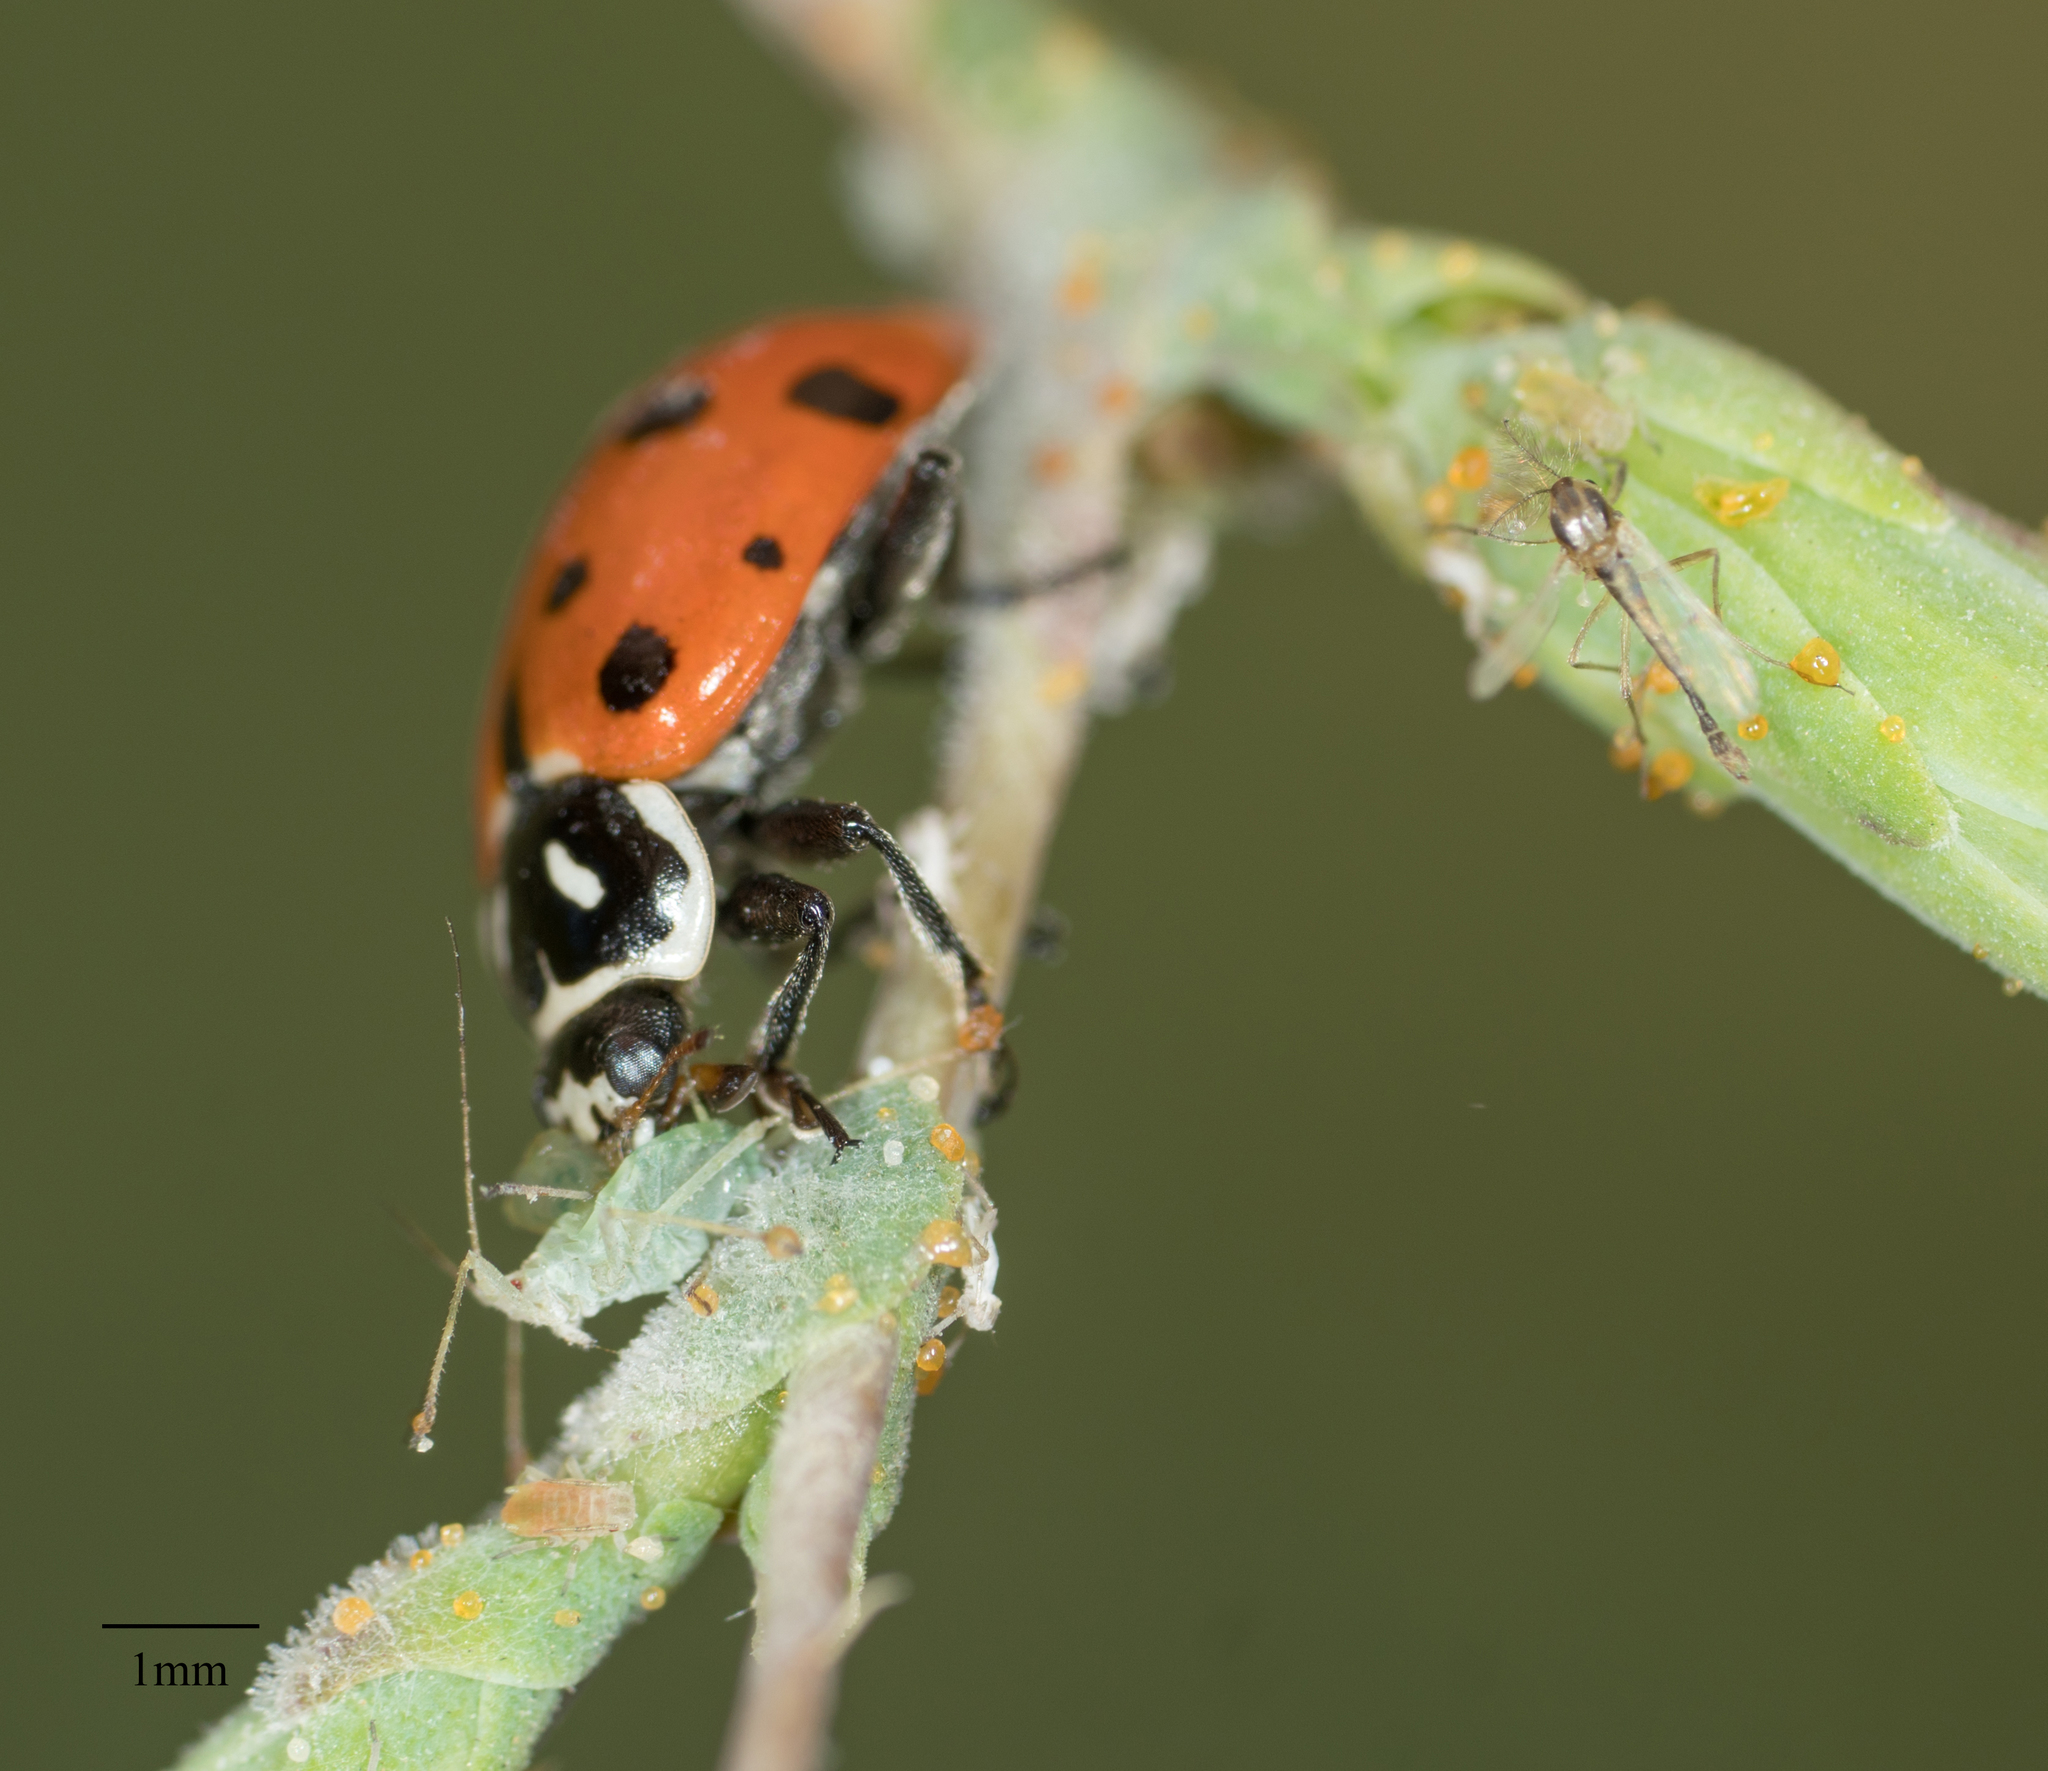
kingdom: Animalia
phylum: Arthropoda
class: Insecta
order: Coleoptera
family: Coccinellidae
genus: Hippodamia
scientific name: Hippodamia convergens
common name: Convergent lady beetle
